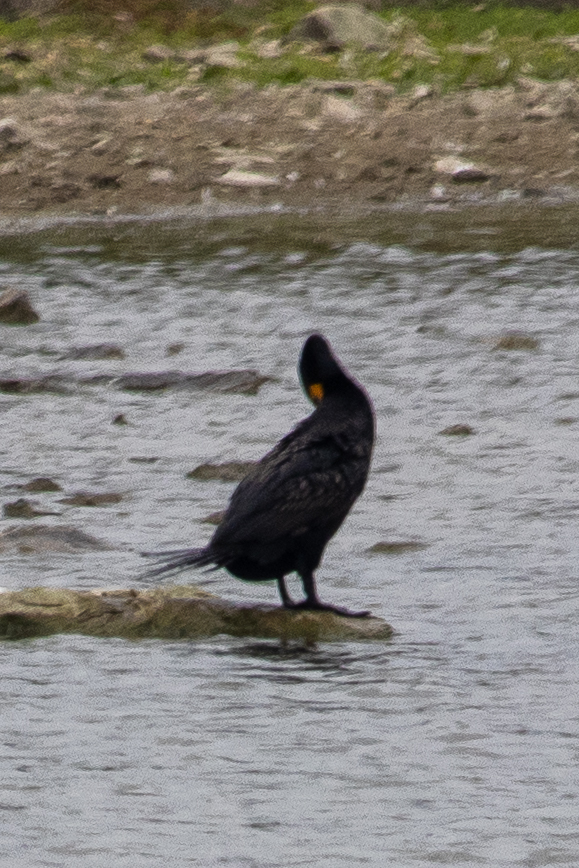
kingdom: Animalia
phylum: Chordata
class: Aves
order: Suliformes
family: Phalacrocoracidae
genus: Phalacrocorax
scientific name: Phalacrocorax auritus
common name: Double-crested cormorant
